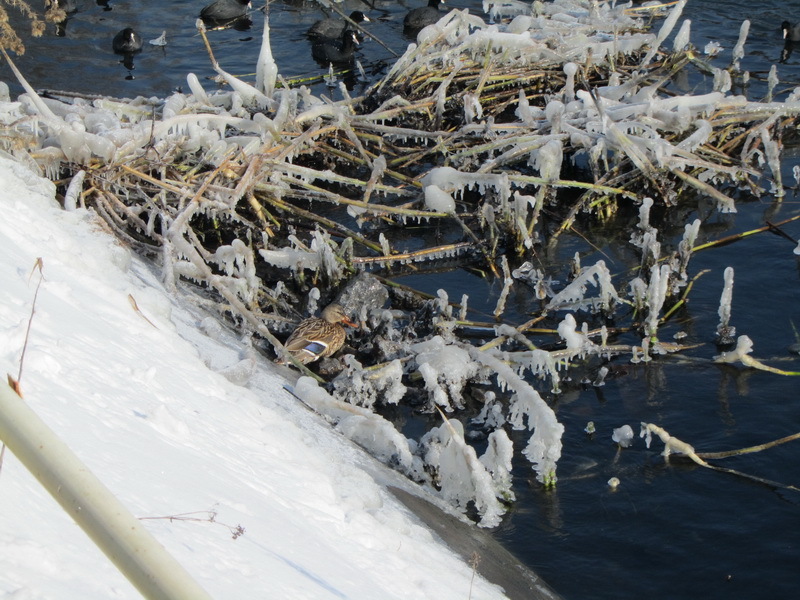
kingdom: Animalia
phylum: Chordata
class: Aves
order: Anseriformes
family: Anatidae
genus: Anas
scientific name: Anas platyrhynchos
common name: Mallard
